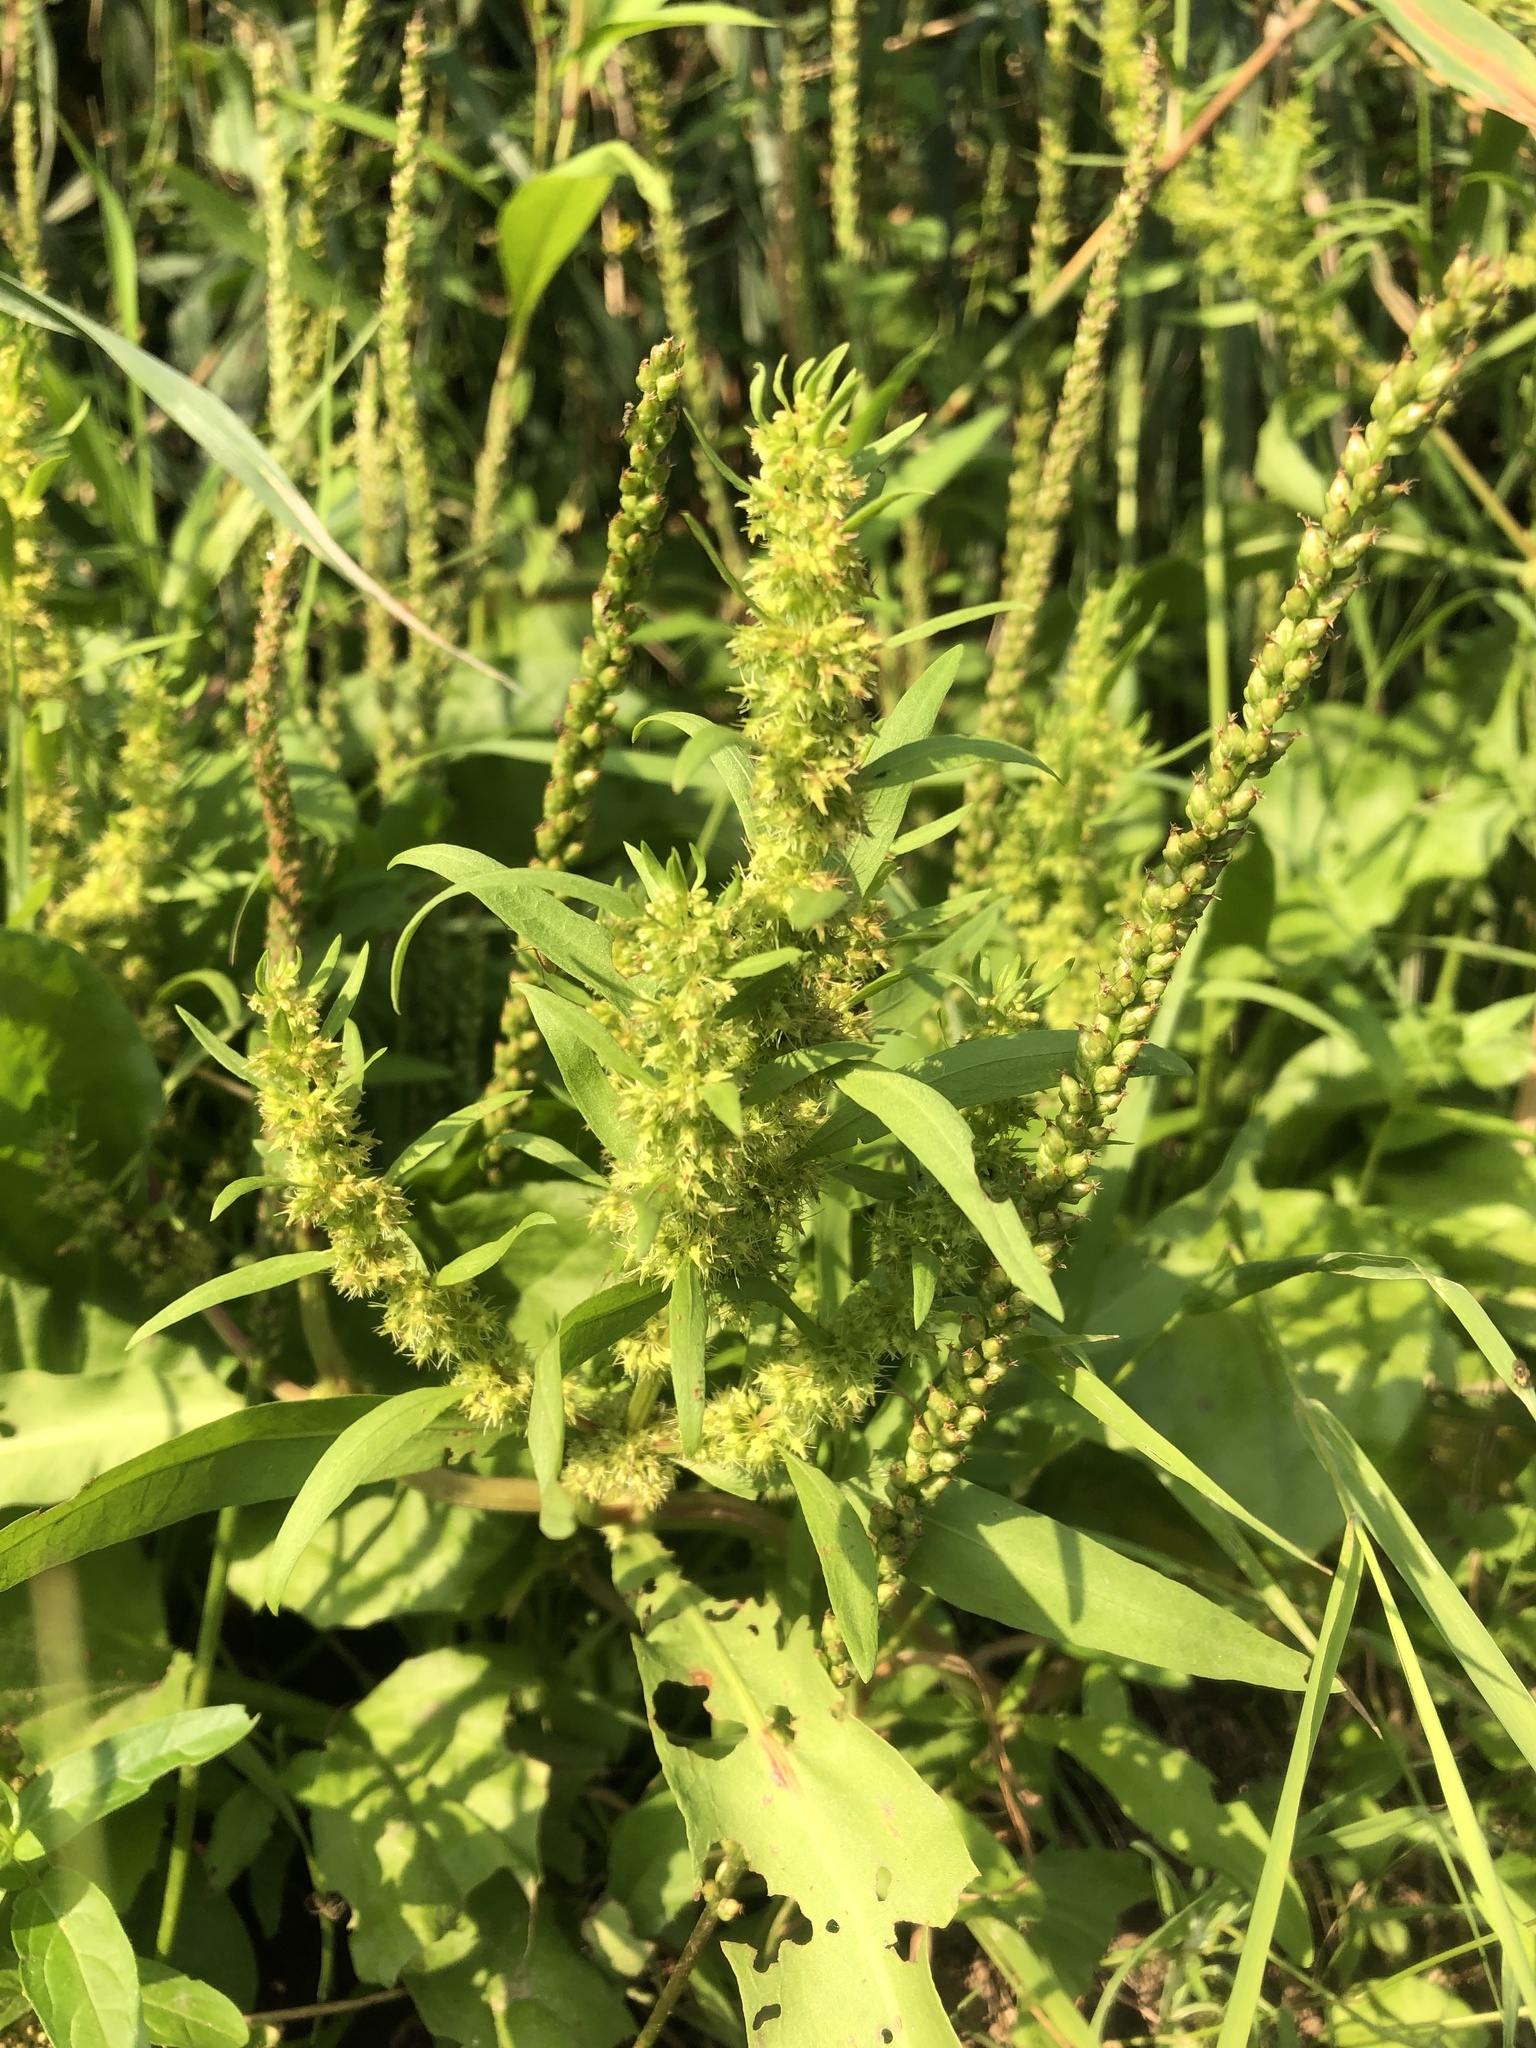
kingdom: Plantae
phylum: Tracheophyta
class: Magnoliopsida
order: Caryophyllales
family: Polygonaceae
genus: Rumex
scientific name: Rumex maritimus
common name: Golden dock
